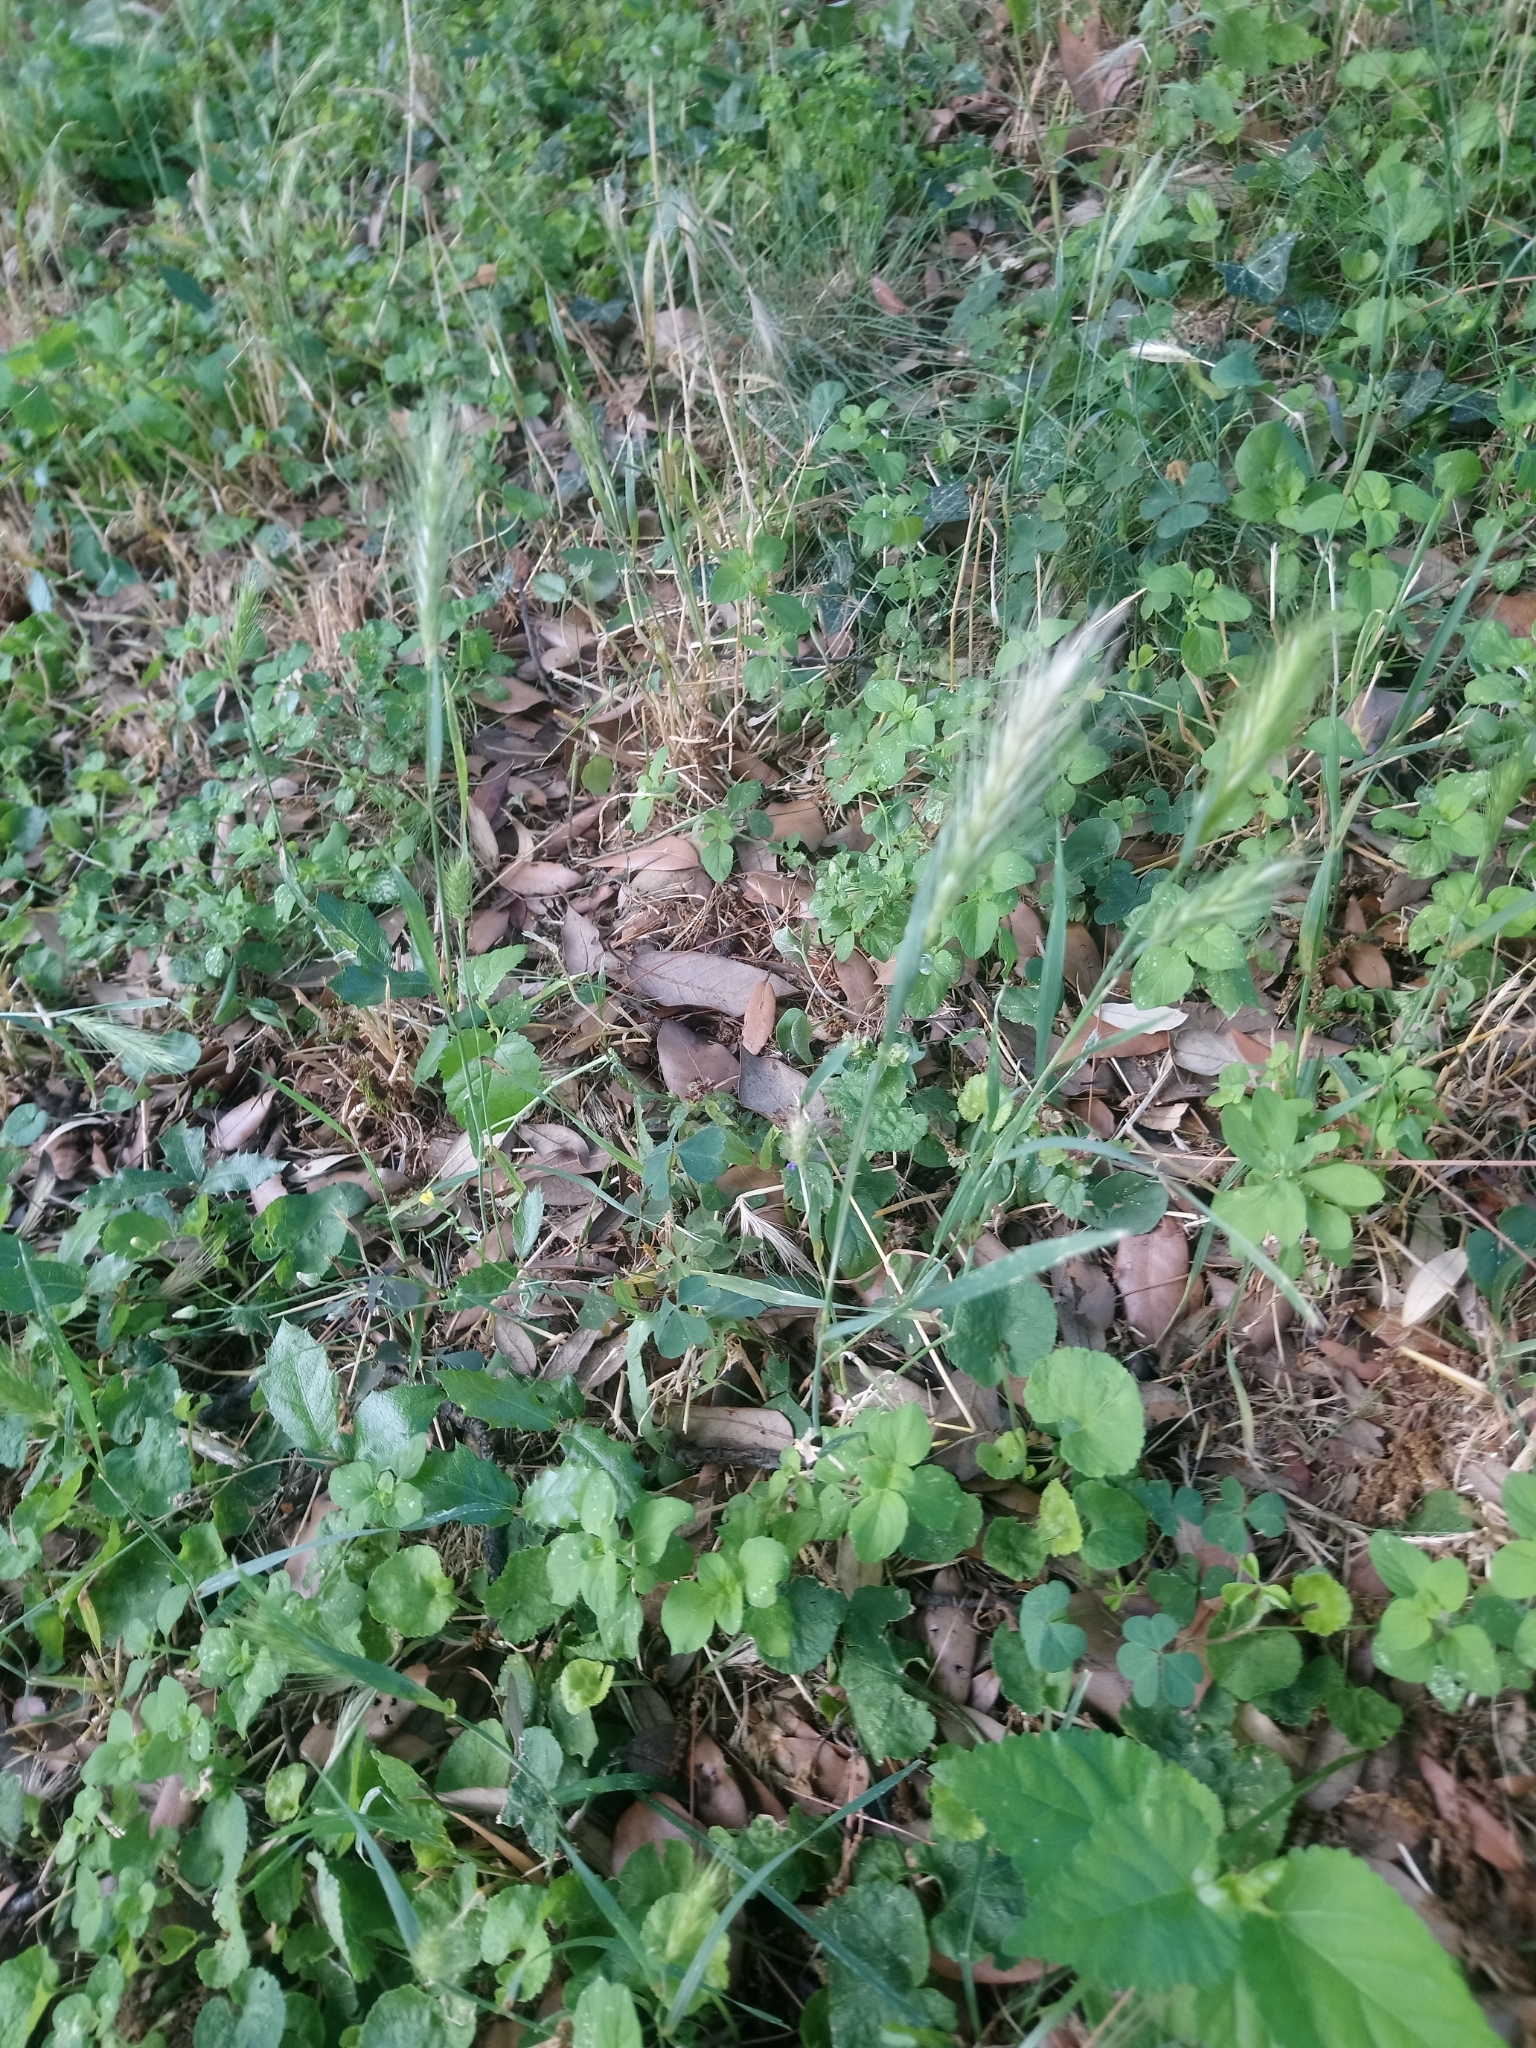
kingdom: Plantae
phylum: Tracheophyta
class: Liliopsida
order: Poales
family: Poaceae
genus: Hordeum
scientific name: Hordeum murinum
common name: Wall barley
